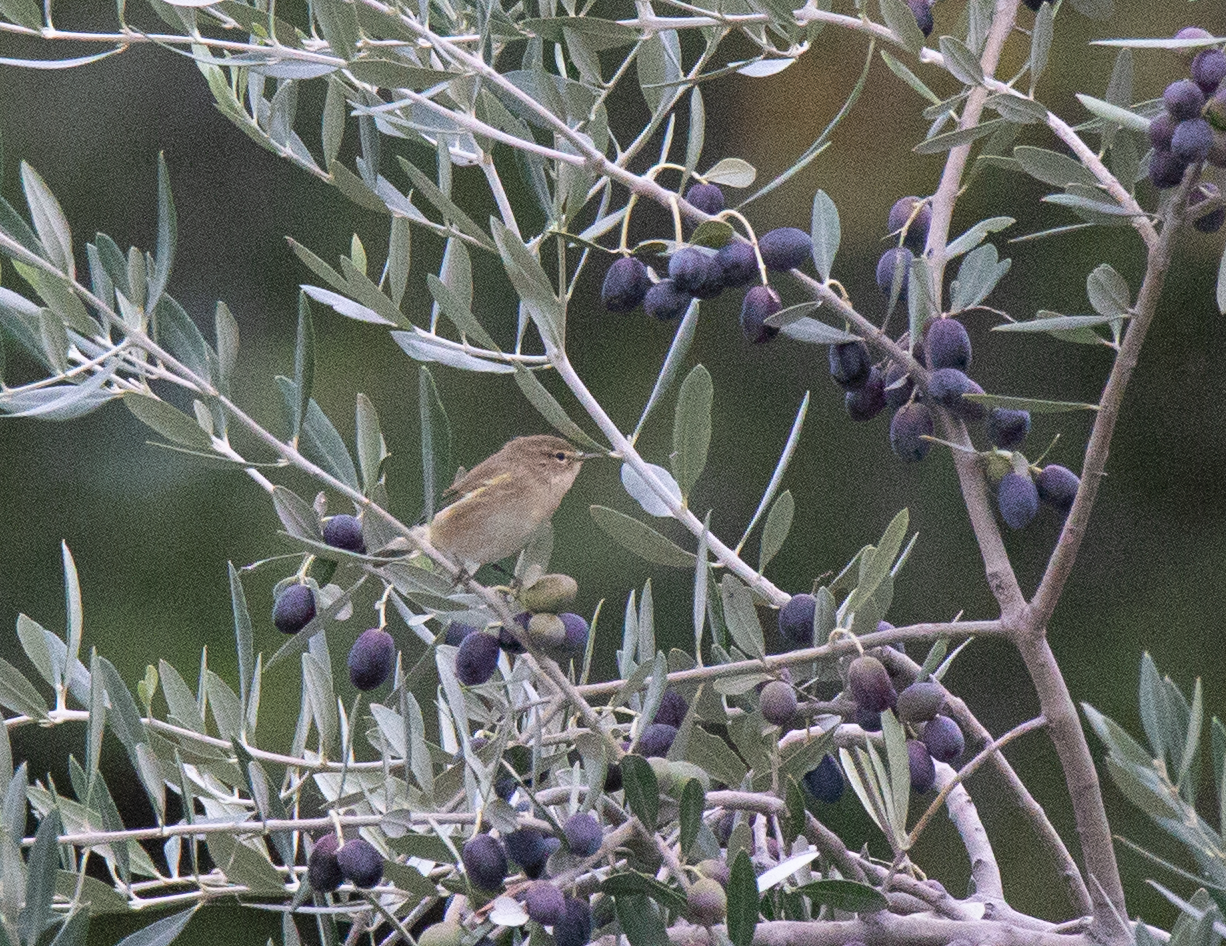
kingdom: Animalia
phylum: Chordata
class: Aves
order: Passeriformes
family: Phylloscopidae
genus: Phylloscopus
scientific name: Phylloscopus collybita
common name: Common chiffchaff
